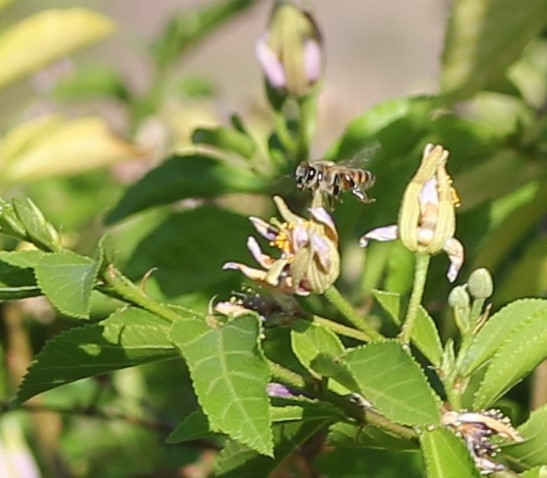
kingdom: Animalia
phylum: Arthropoda
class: Insecta
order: Hymenoptera
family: Apidae
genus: Apis
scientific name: Apis mellifera
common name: Honey bee
